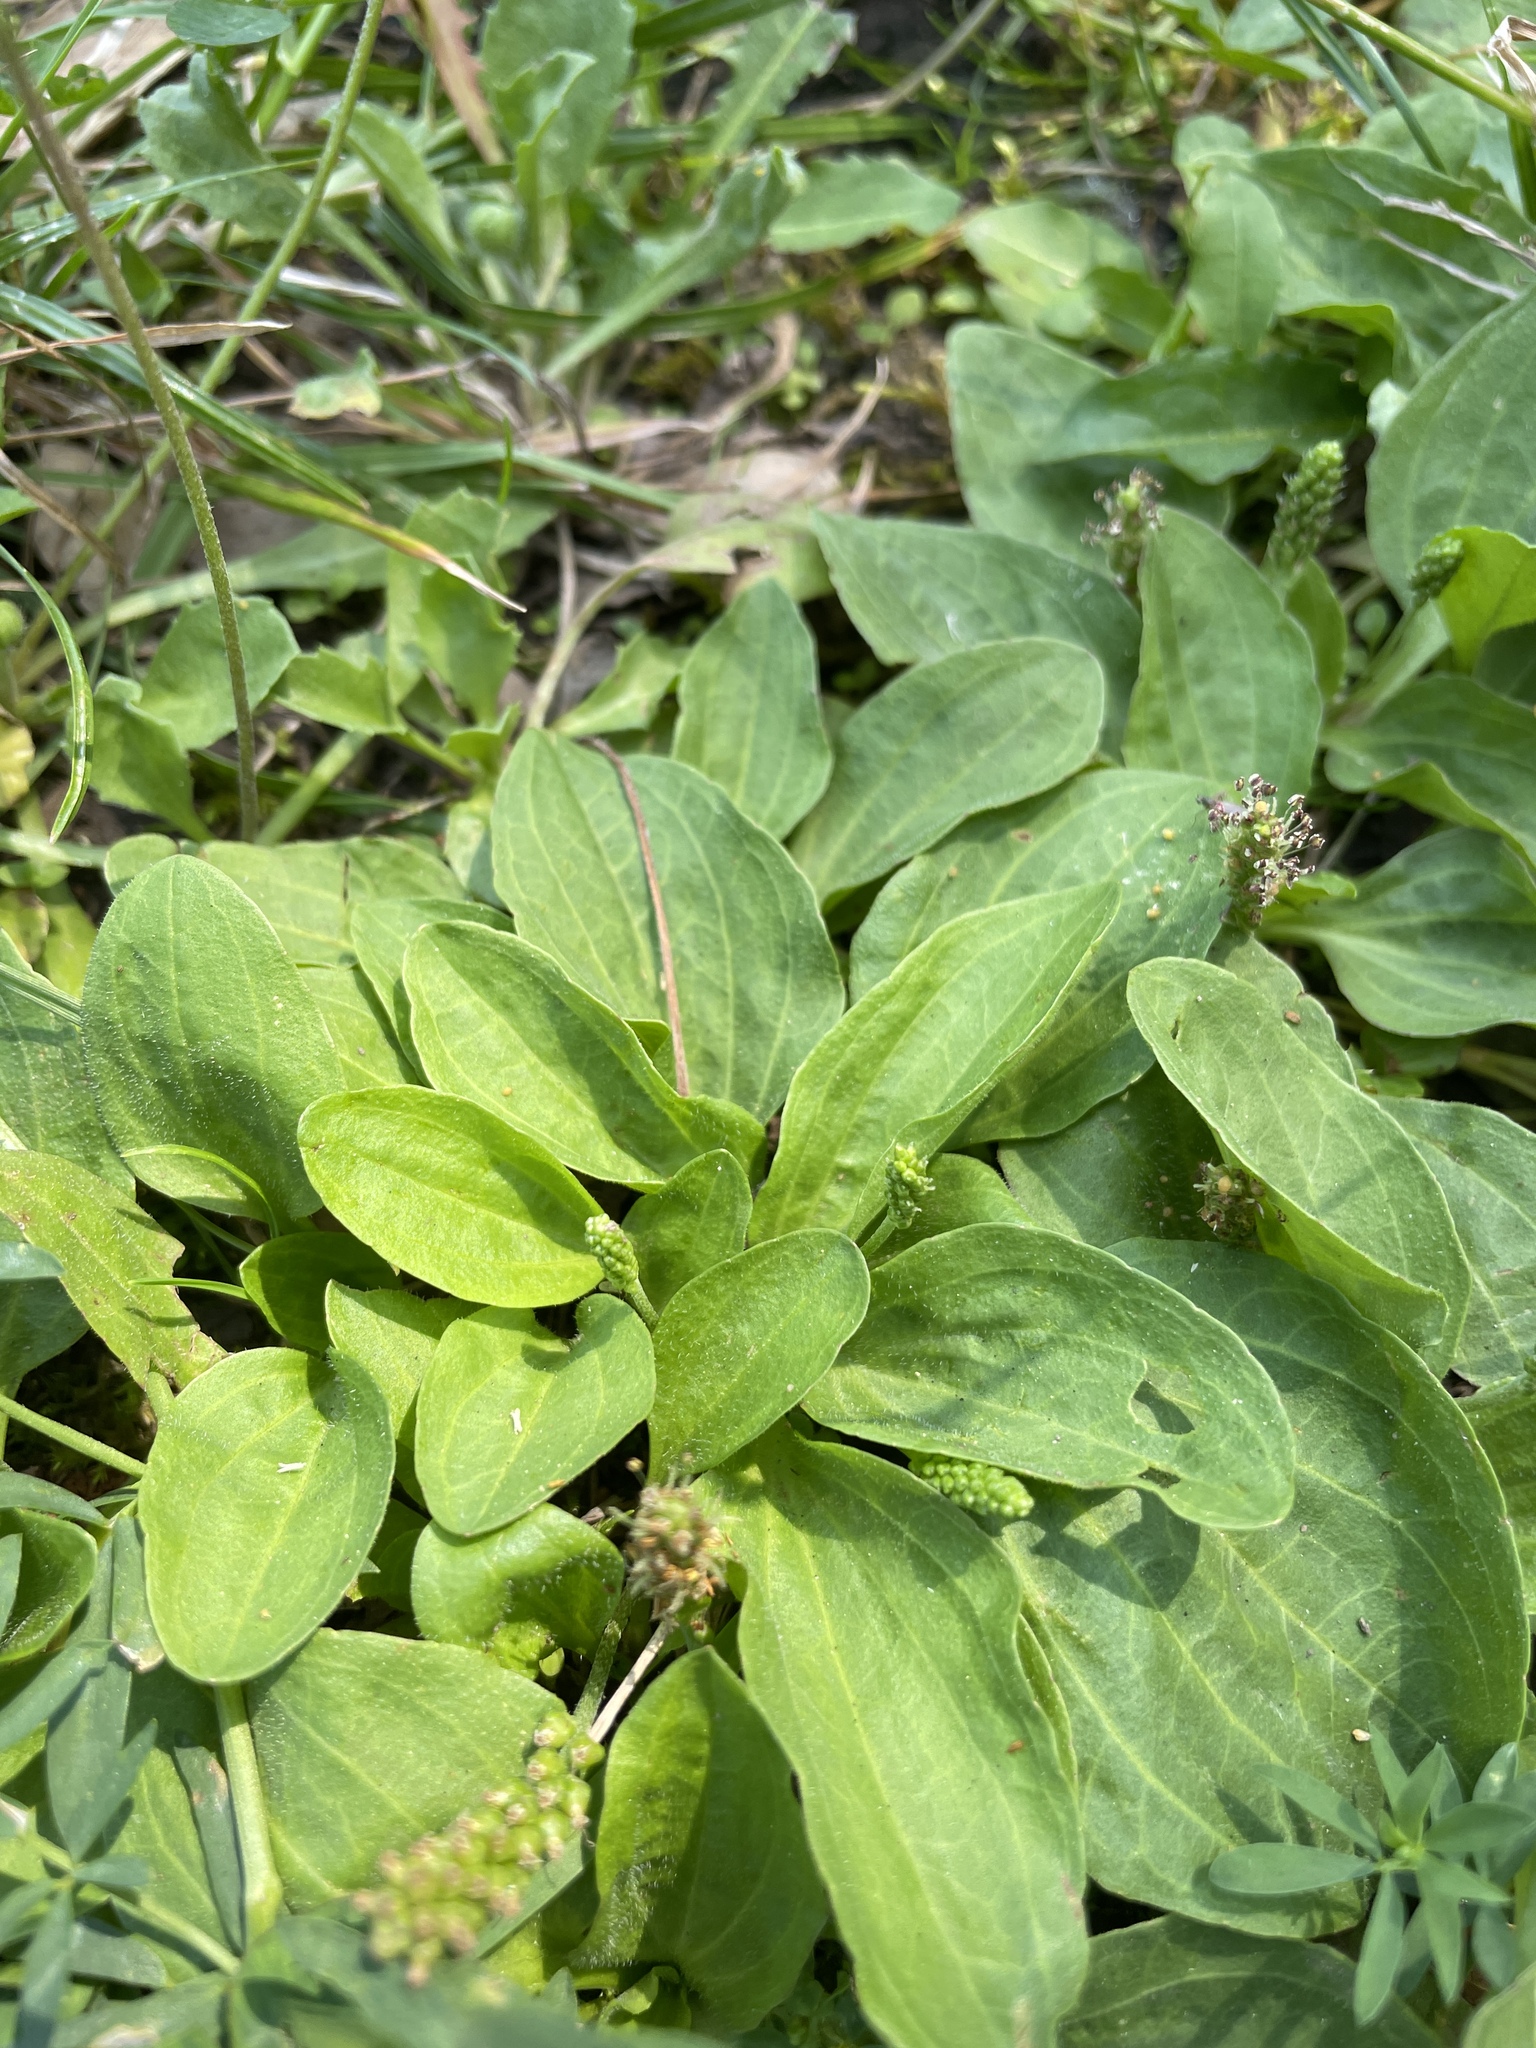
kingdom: Plantae
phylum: Tracheophyta
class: Magnoliopsida
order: Lamiales
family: Plantaginaceae
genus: Plantago
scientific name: Plantago major
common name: Common plantain
